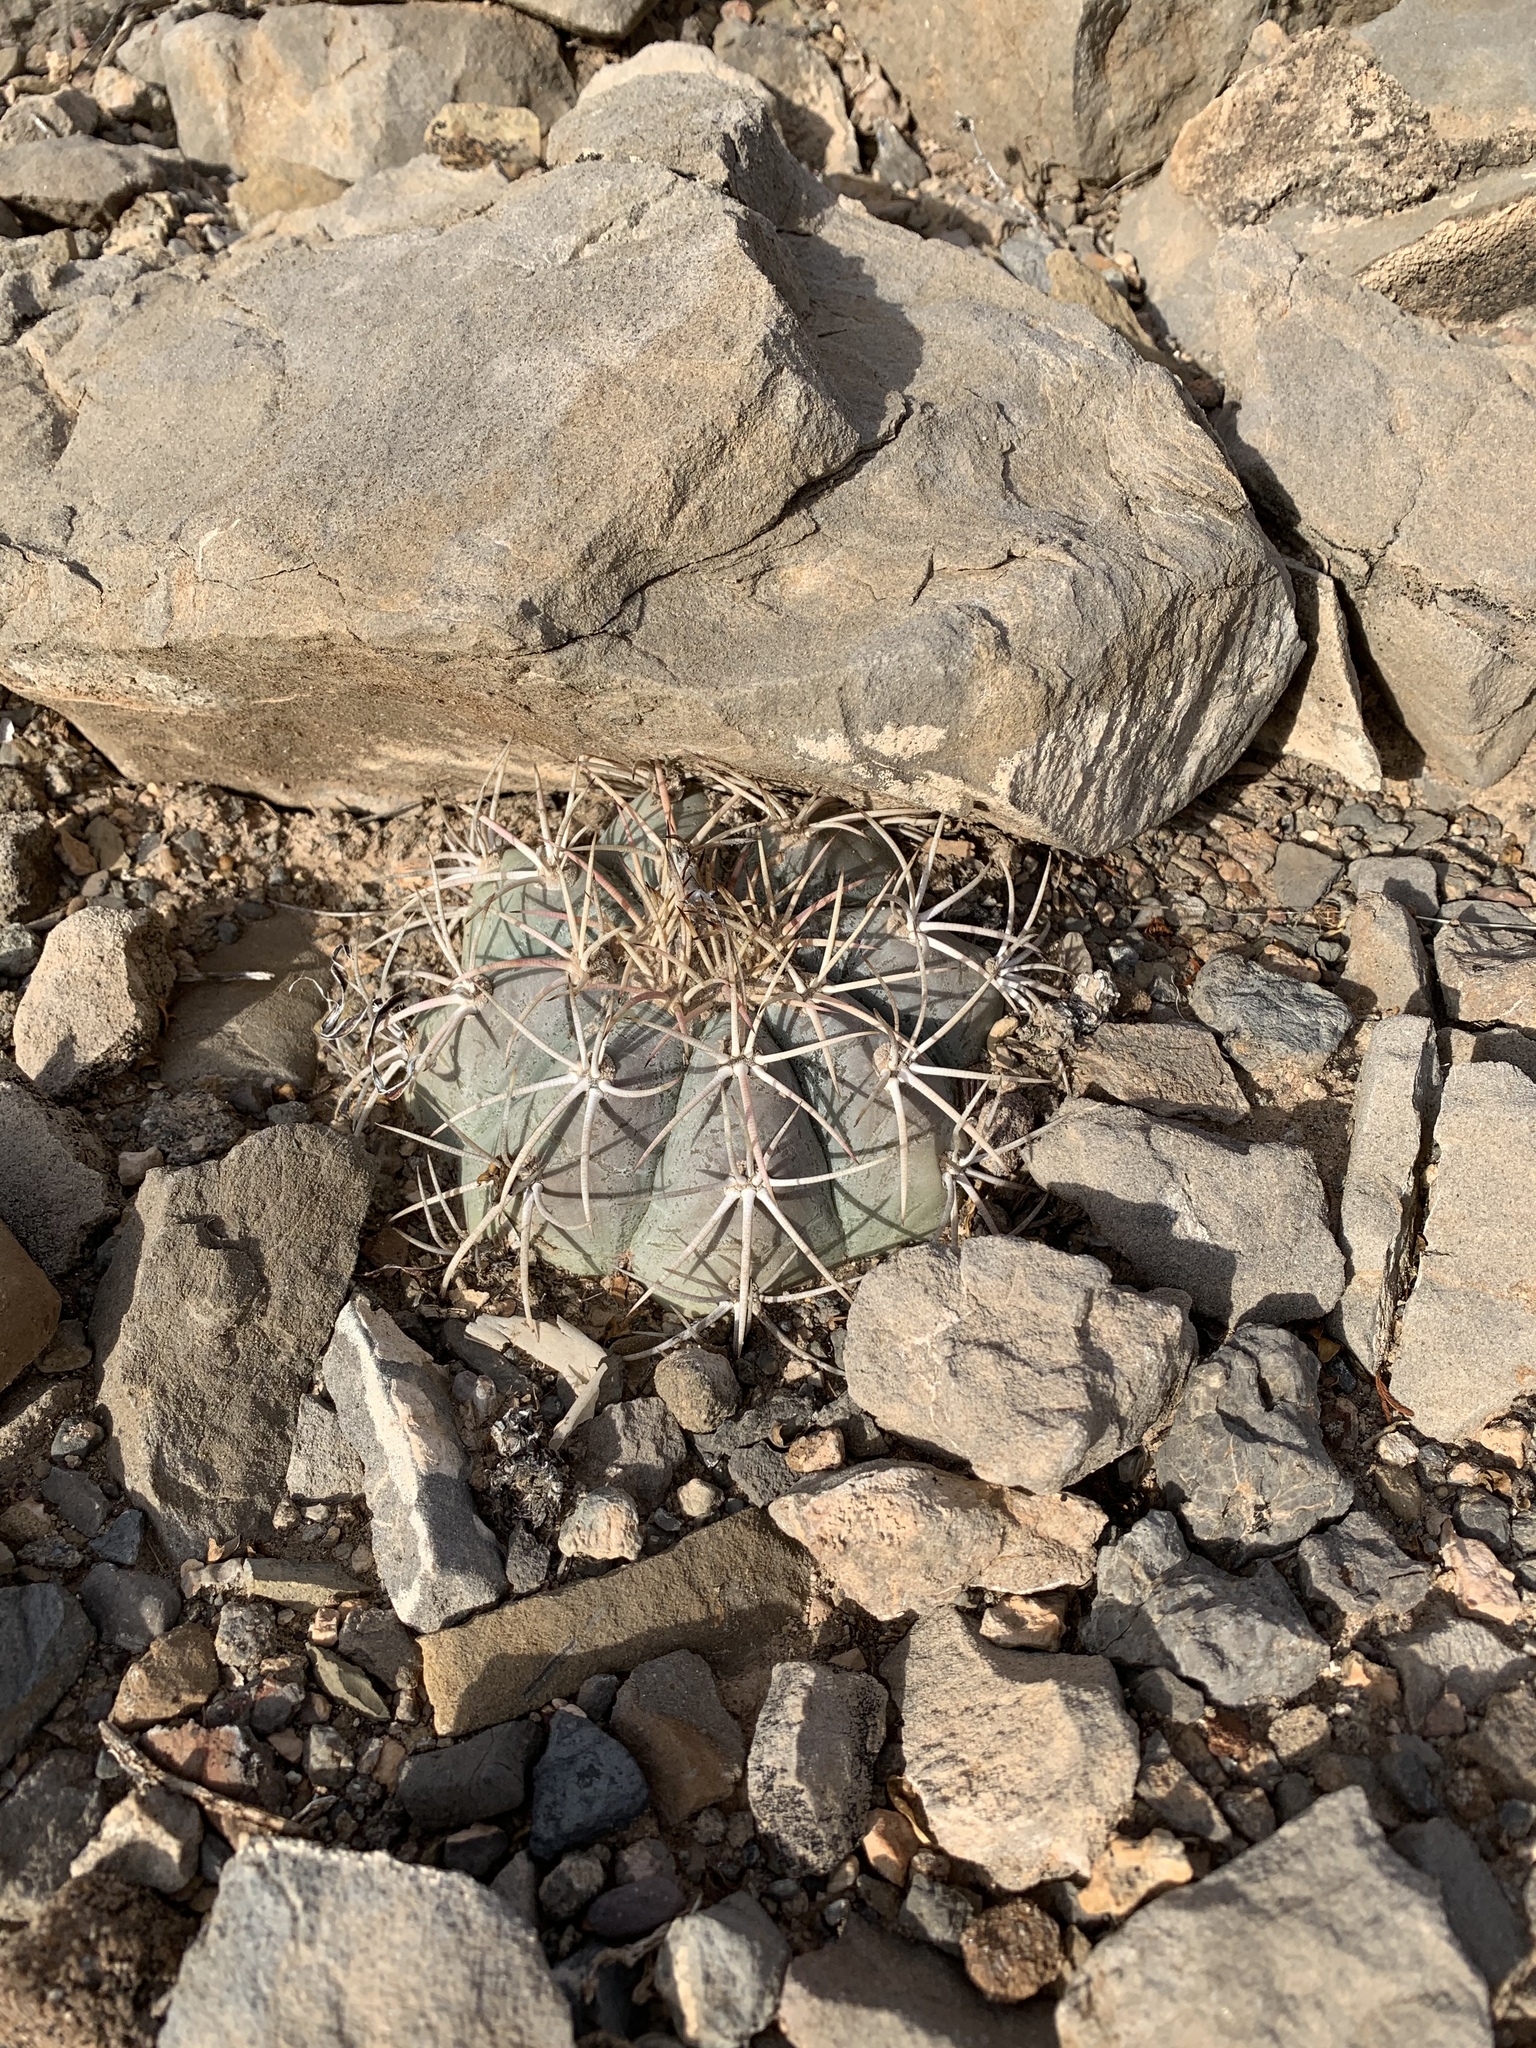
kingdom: Plantae
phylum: Tracheophyta
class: Magnoliopsida
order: Caryophyllales
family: Cactaceae
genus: Echinocactus
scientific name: Echinocactus horizonthalonius
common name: Devilshead
